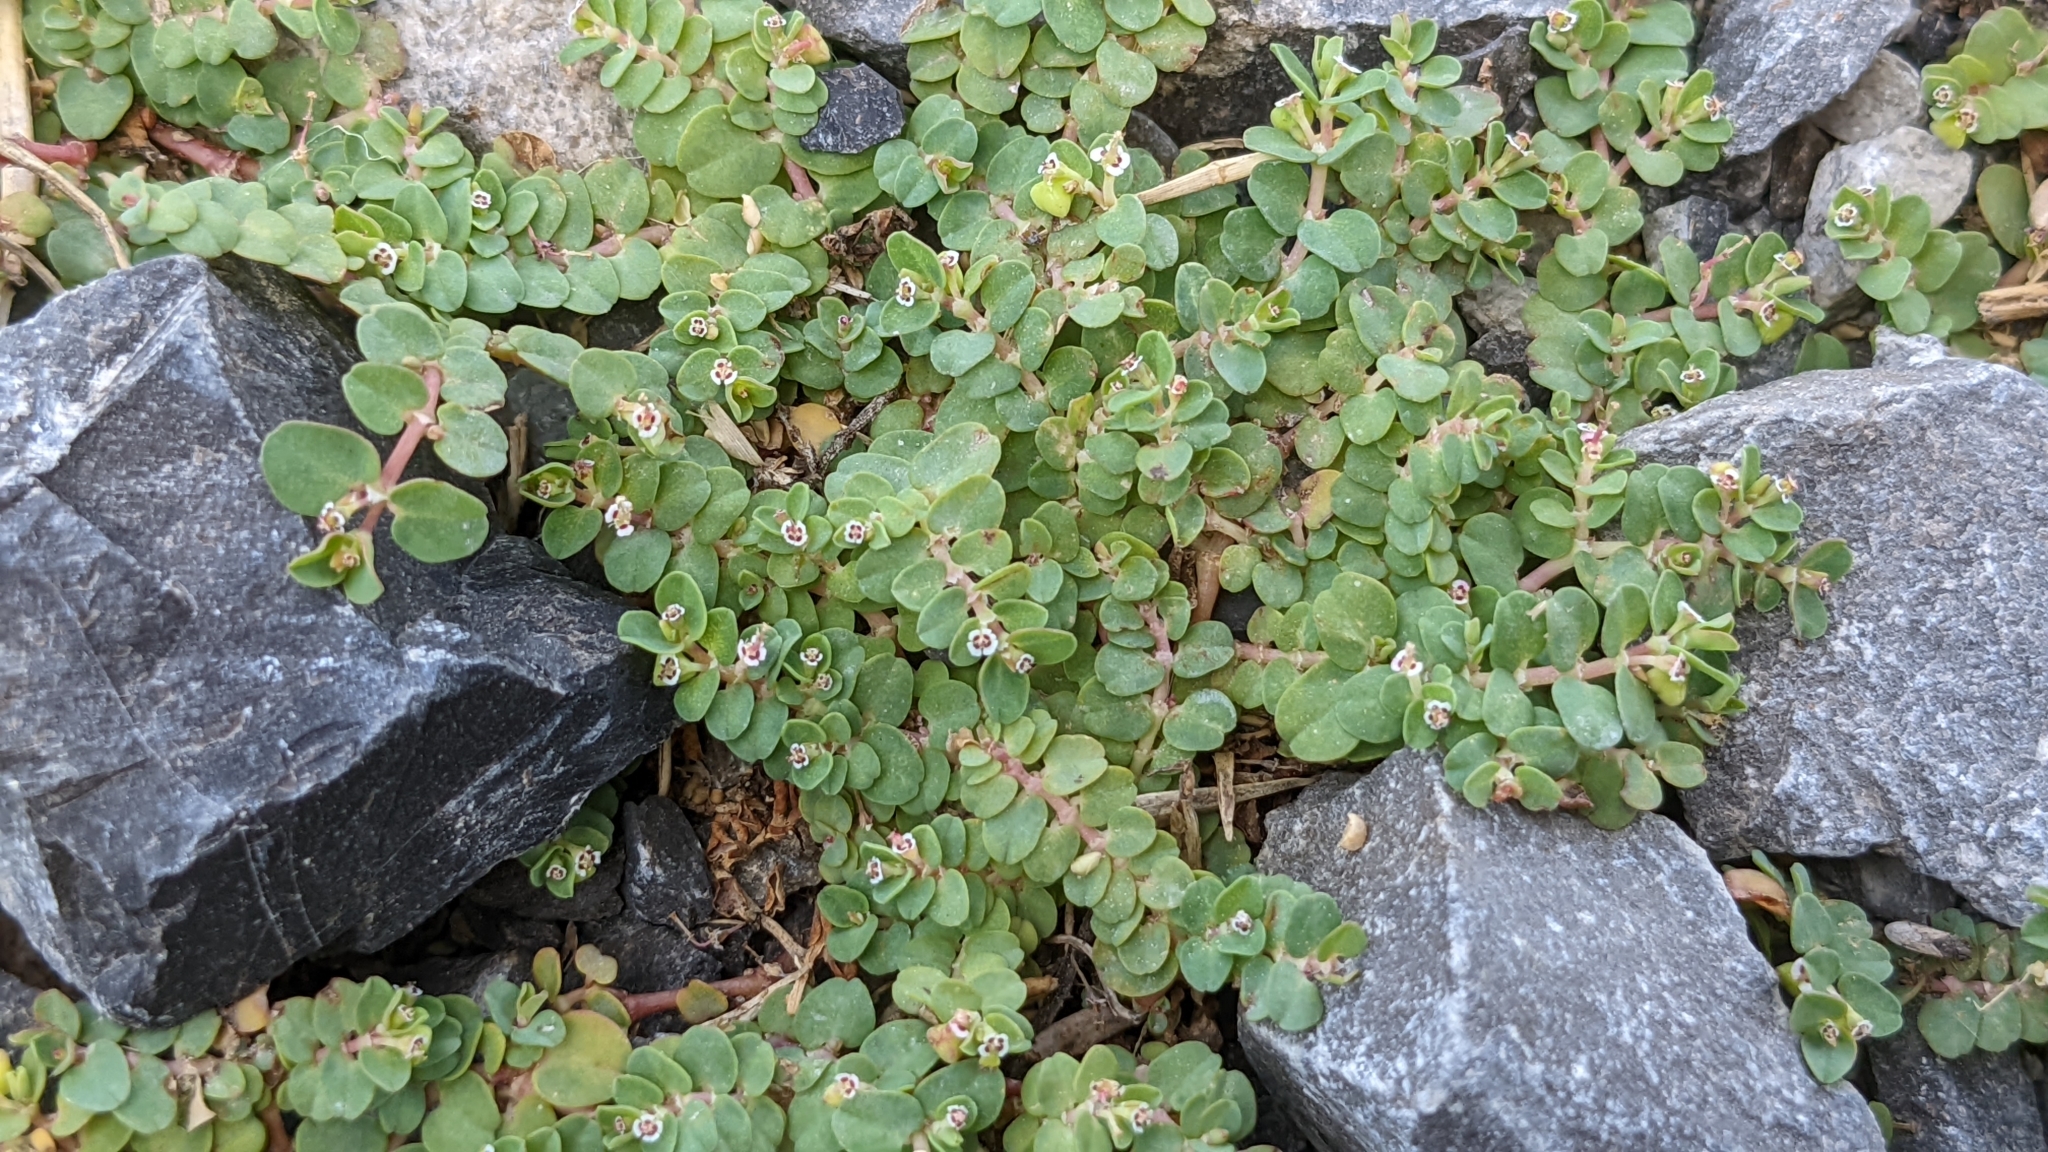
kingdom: Plantae
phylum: Tracheophyta
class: Magnoliopsida
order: Malpighiales
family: Euphorbiaceae
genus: Euphorbia
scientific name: Euphorbia serpens
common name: Matted sandmat
